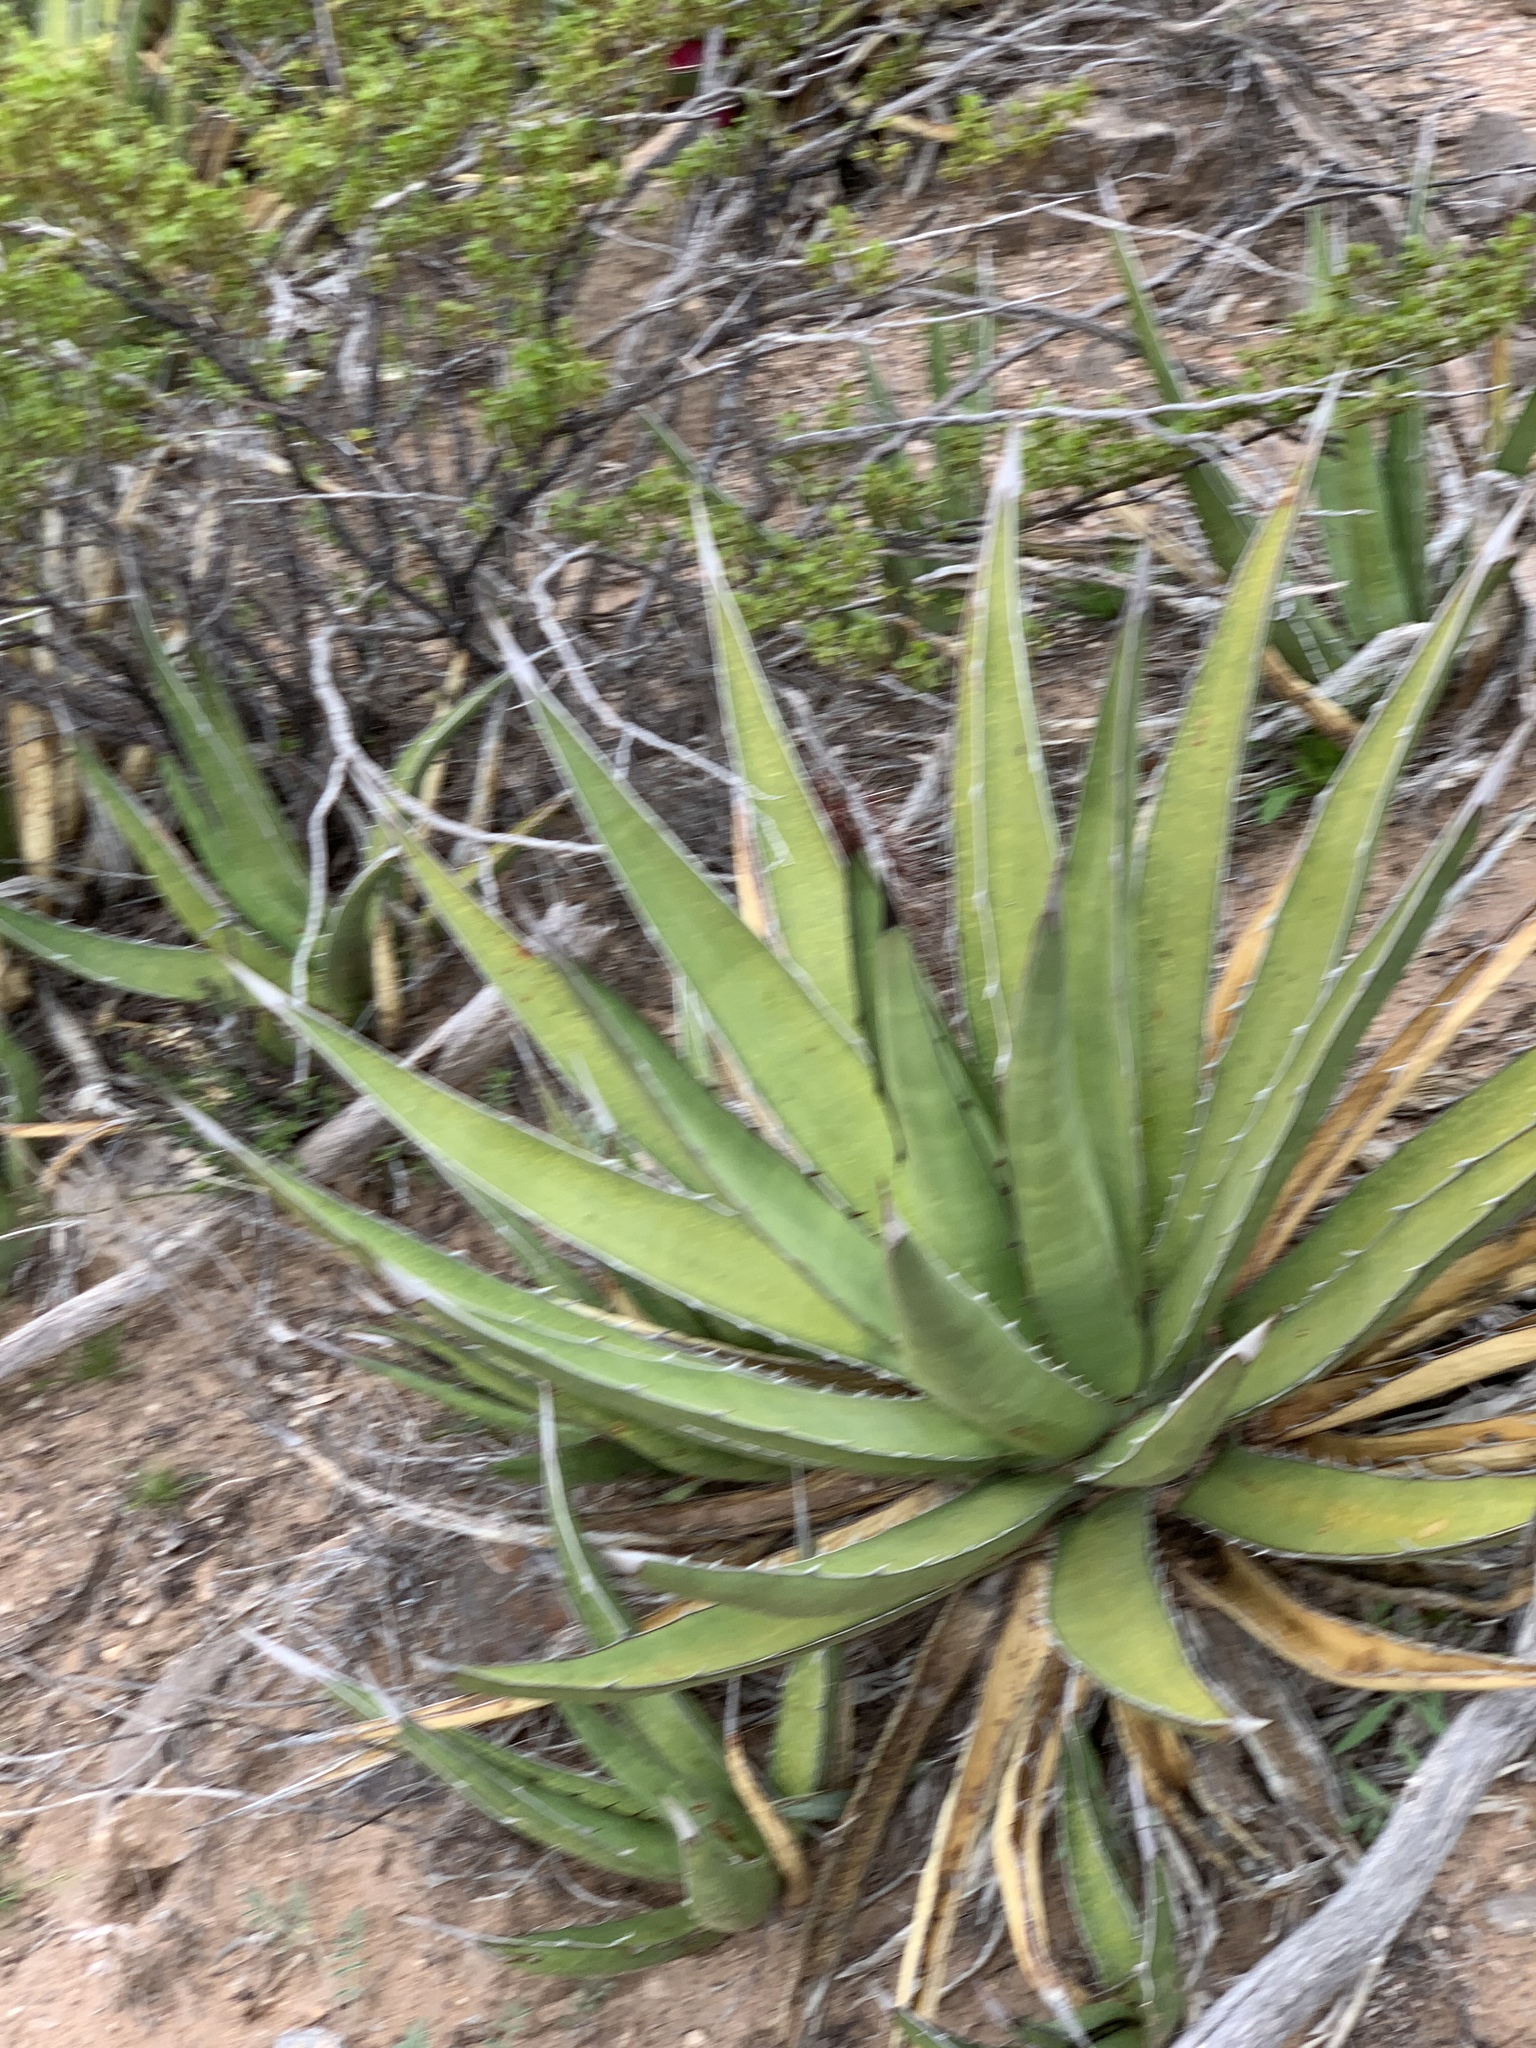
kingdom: Plantae
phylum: Tracheophyta
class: Liliopsida
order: Asparagales
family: Asparagaceae
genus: Agave
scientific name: Agave lechuguilla
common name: Lecheguilla agave
